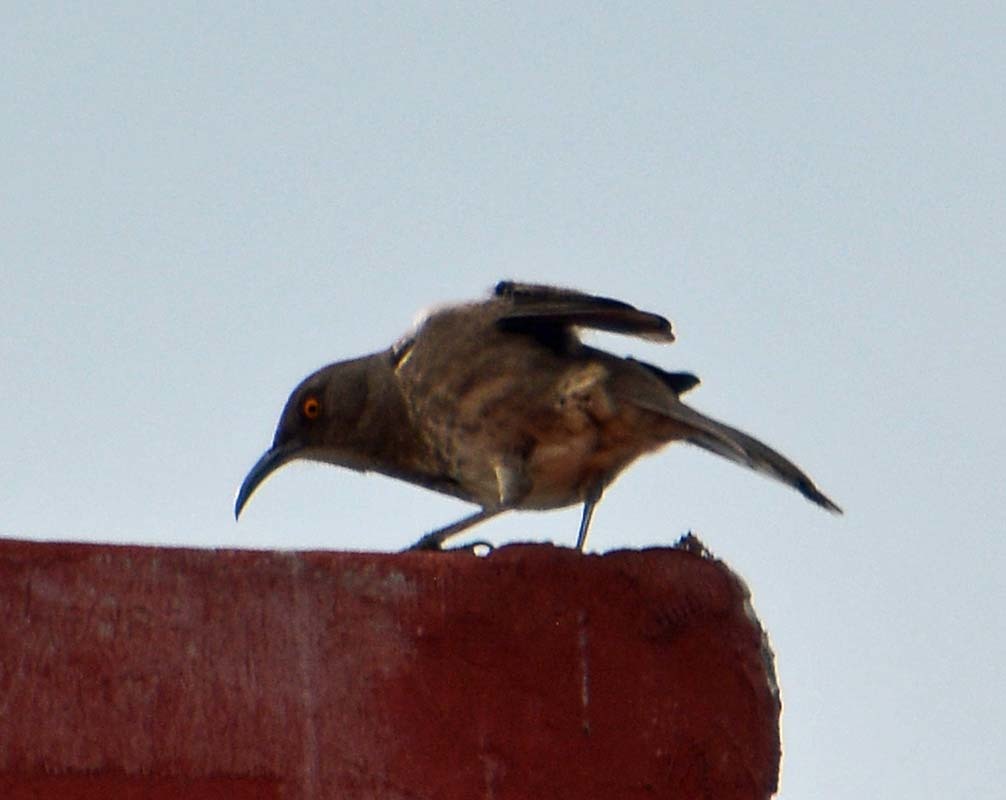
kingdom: Animalia
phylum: Chordata
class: Aves
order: Passeriformes
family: Mimidae
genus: Toxostoma
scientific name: Toxostoma curvirostre
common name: Curve-billed thrasher
